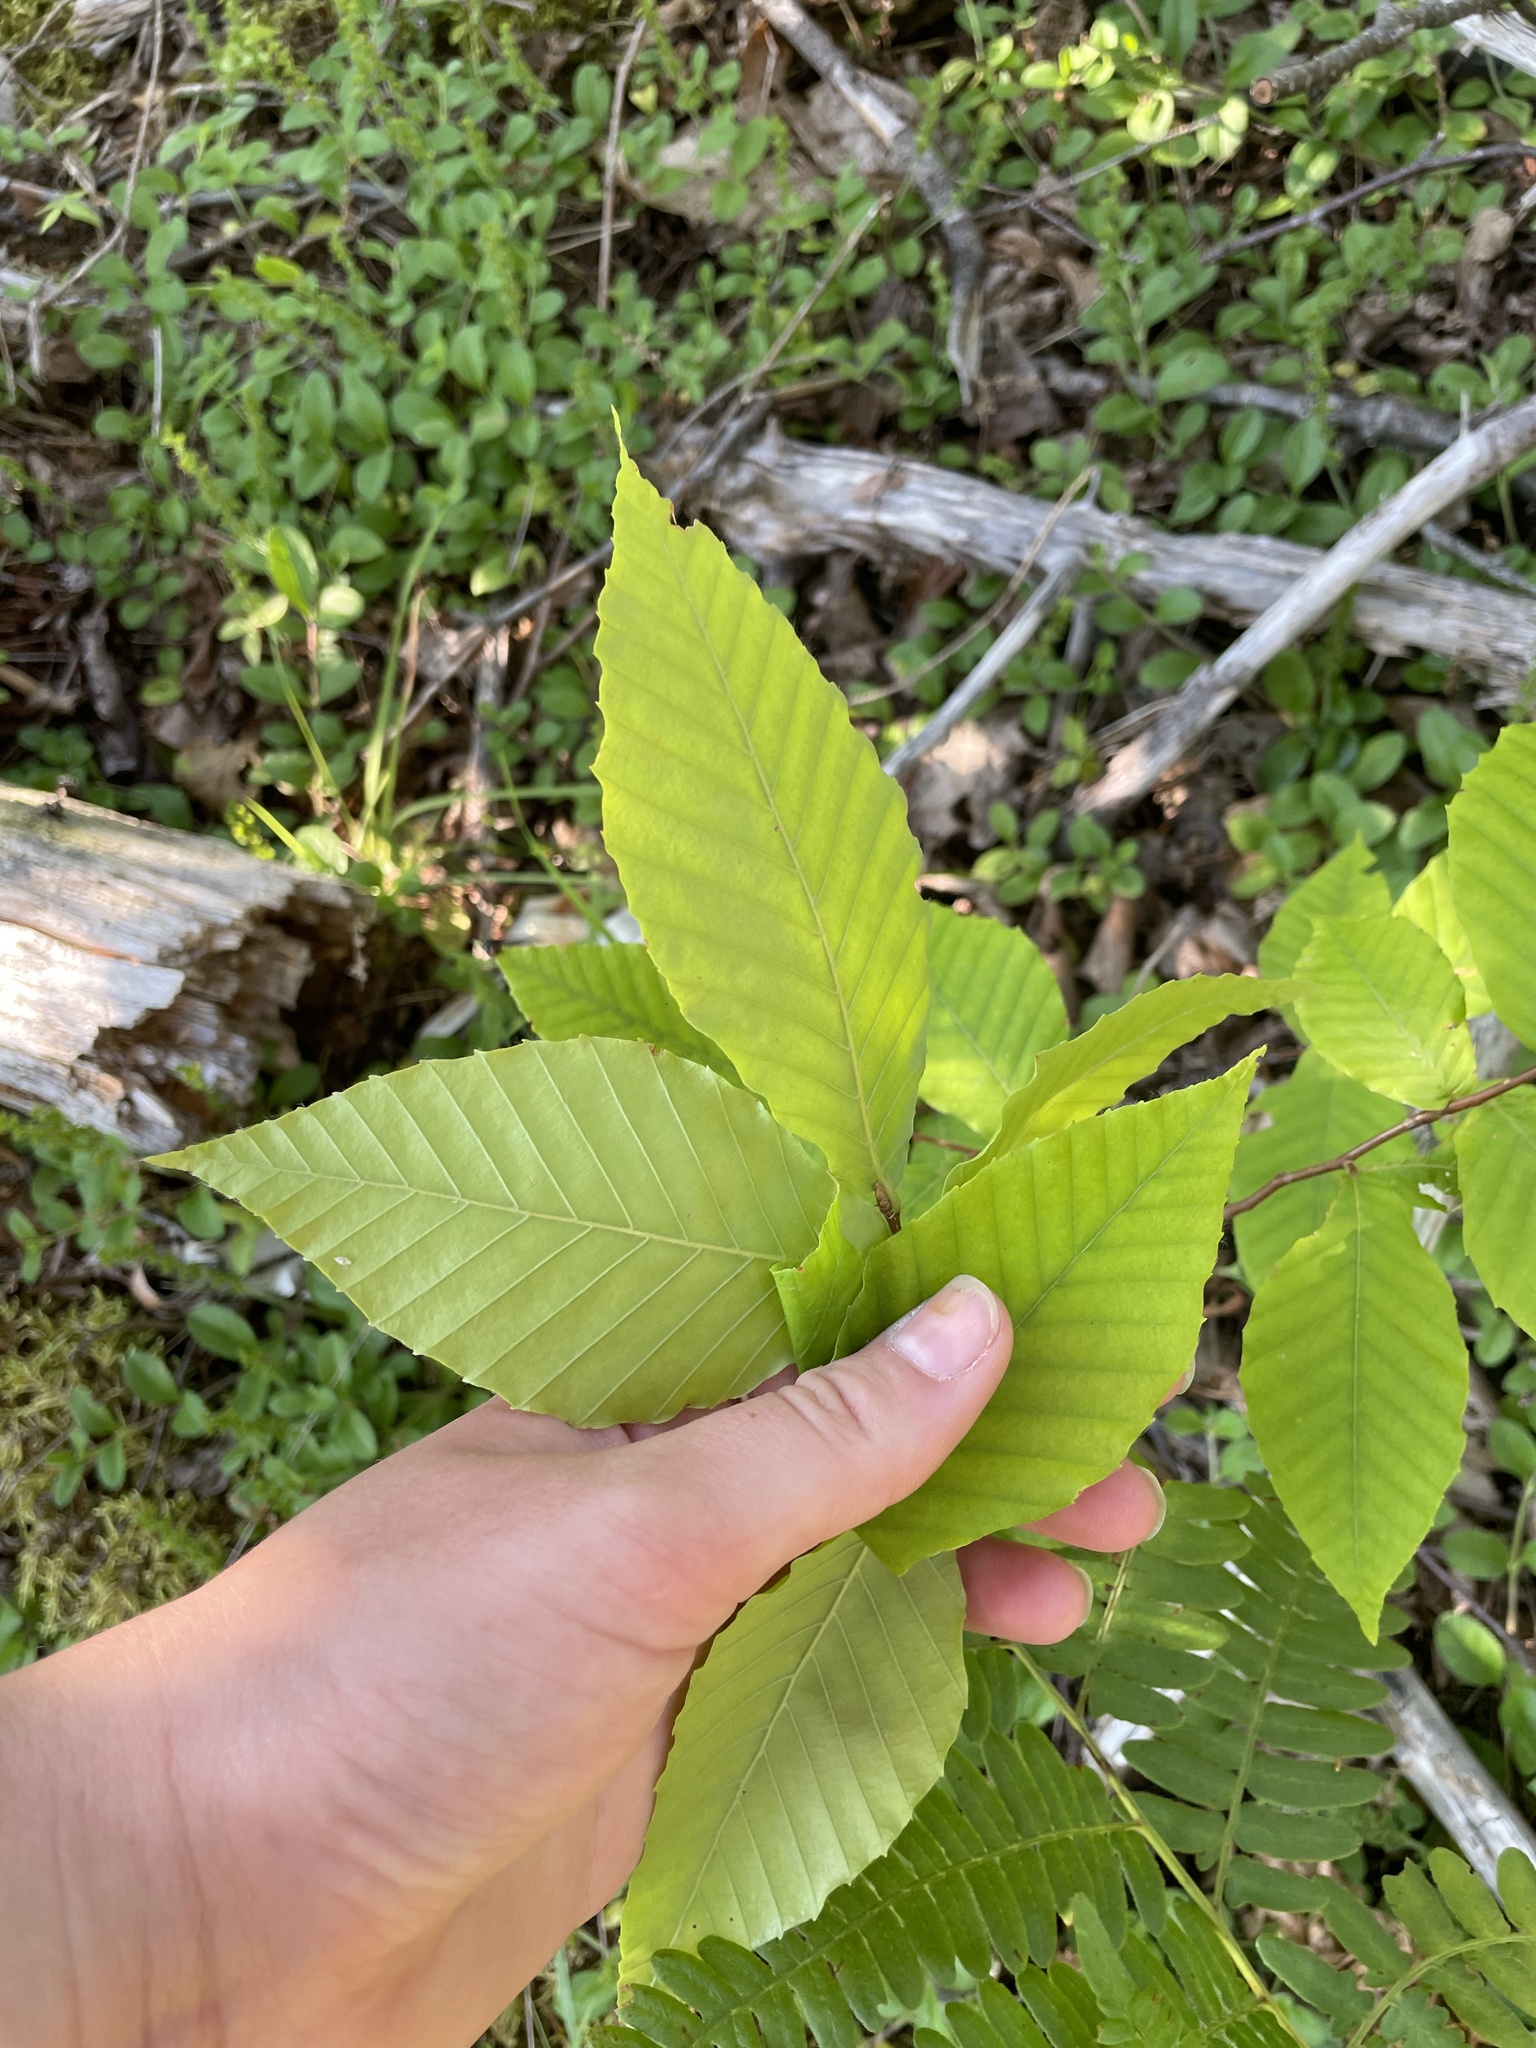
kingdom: Plantae
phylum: Tracheophyta
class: Magnoliopsida
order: Fagales
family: Fagaceae
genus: Fagus
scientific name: Fagus grandifolia
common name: American beech
